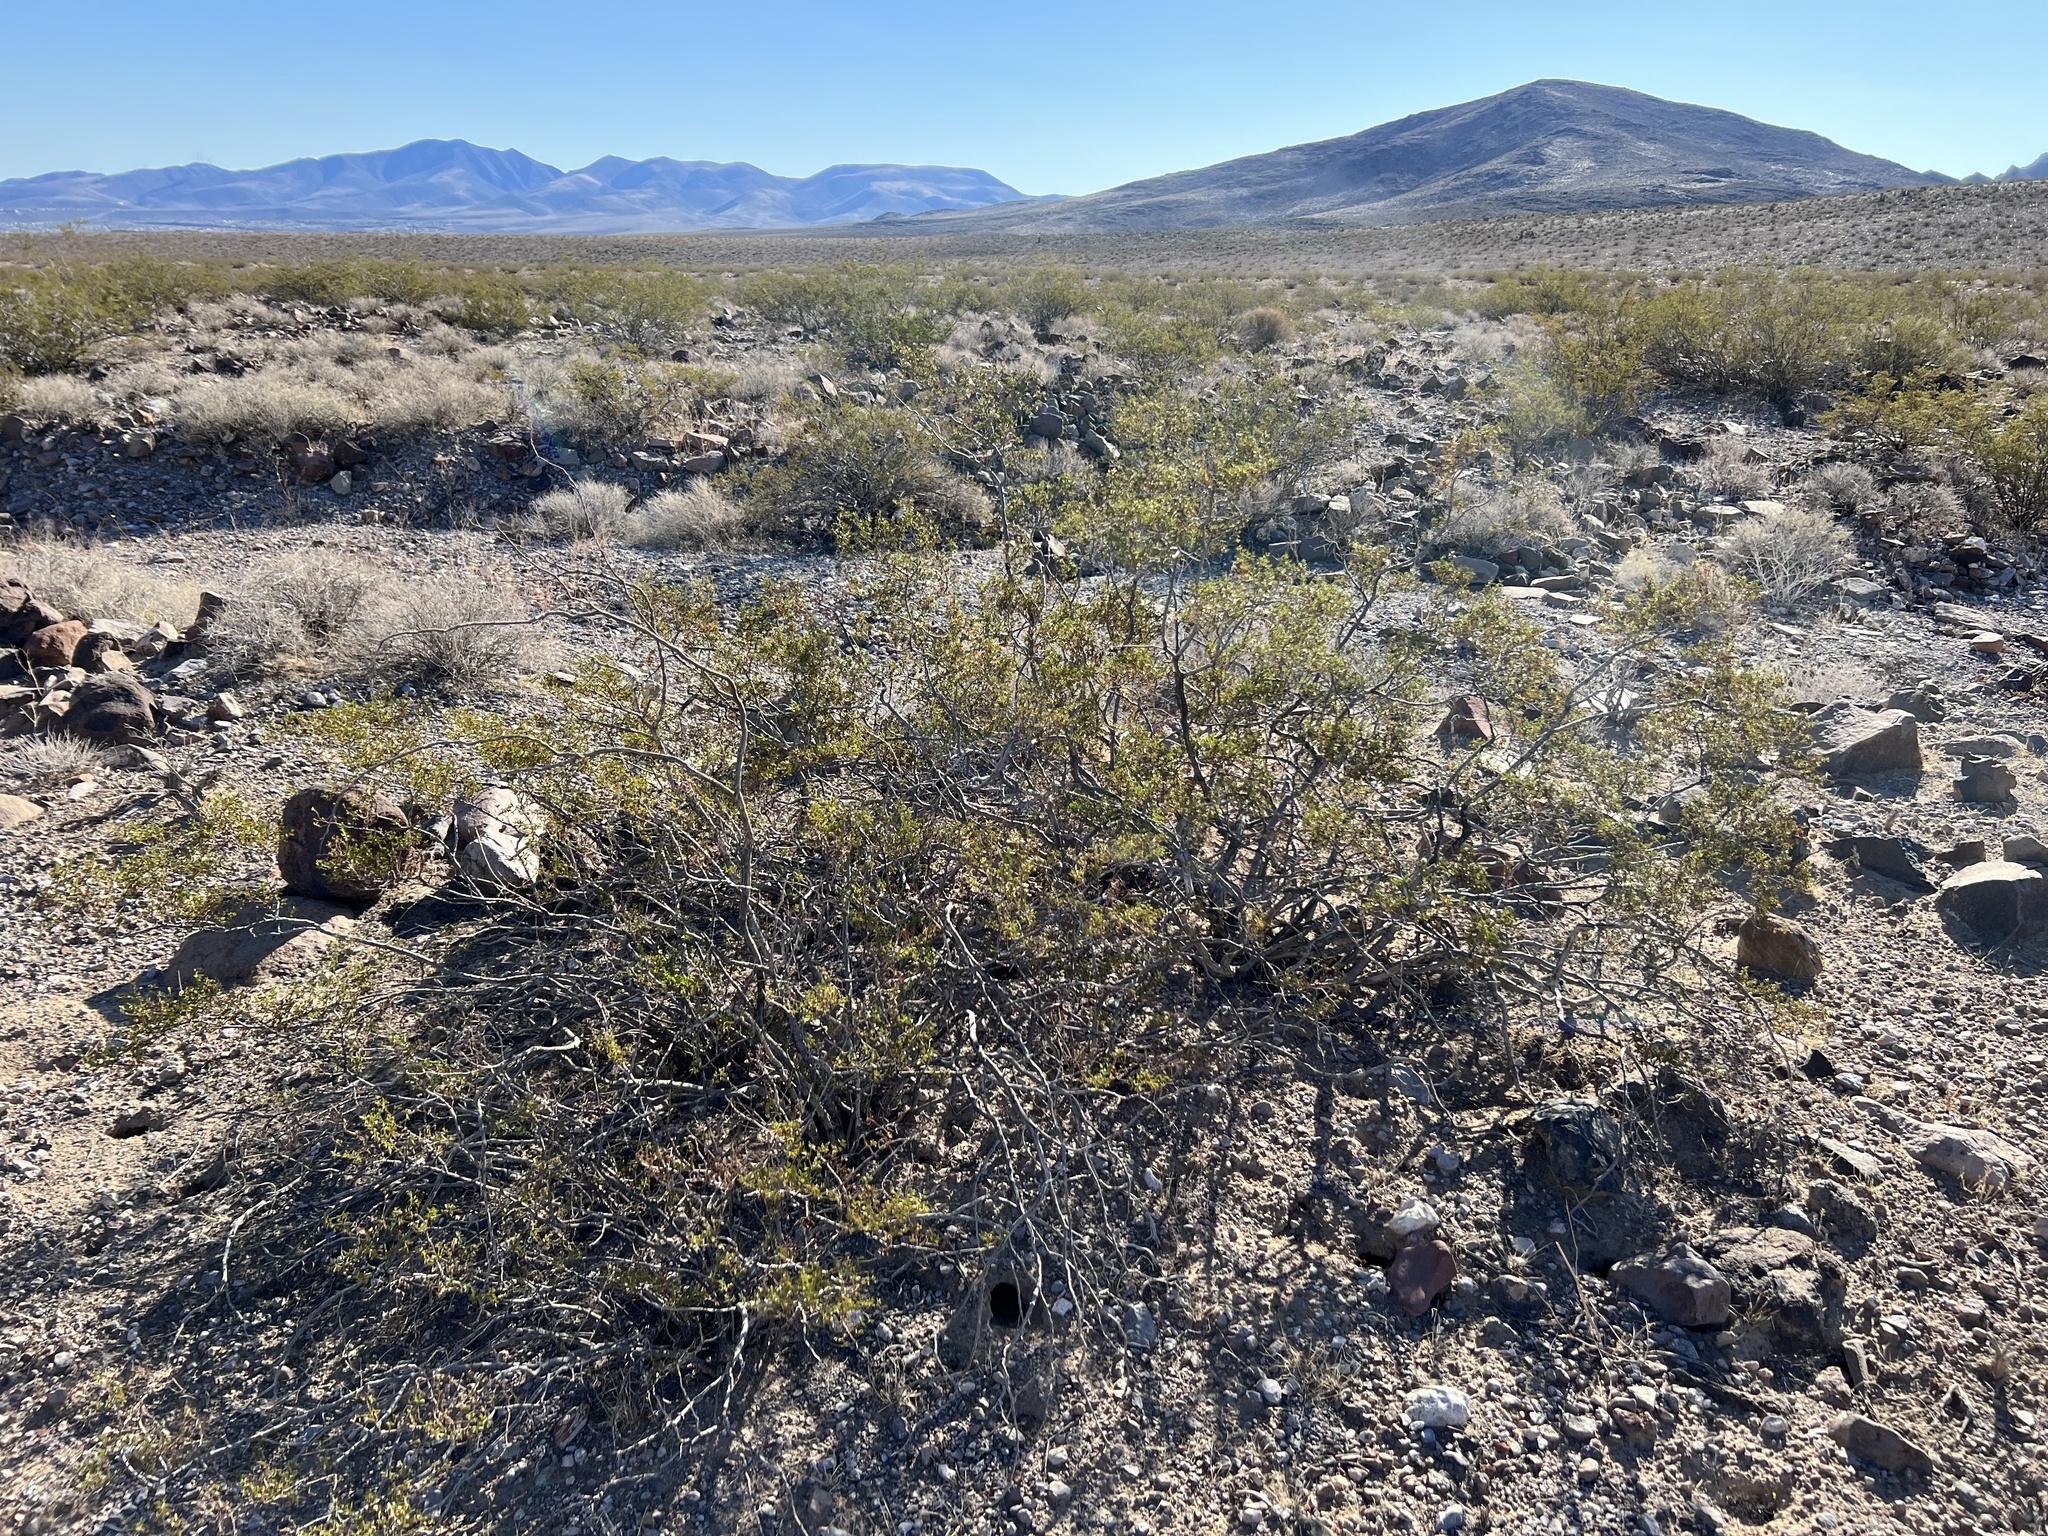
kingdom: Plantae
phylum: Tracheophyta
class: Magnoliopsida
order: Zygophyllales
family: Zygophyllaceae
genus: Larrea
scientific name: Larrea tridentata
